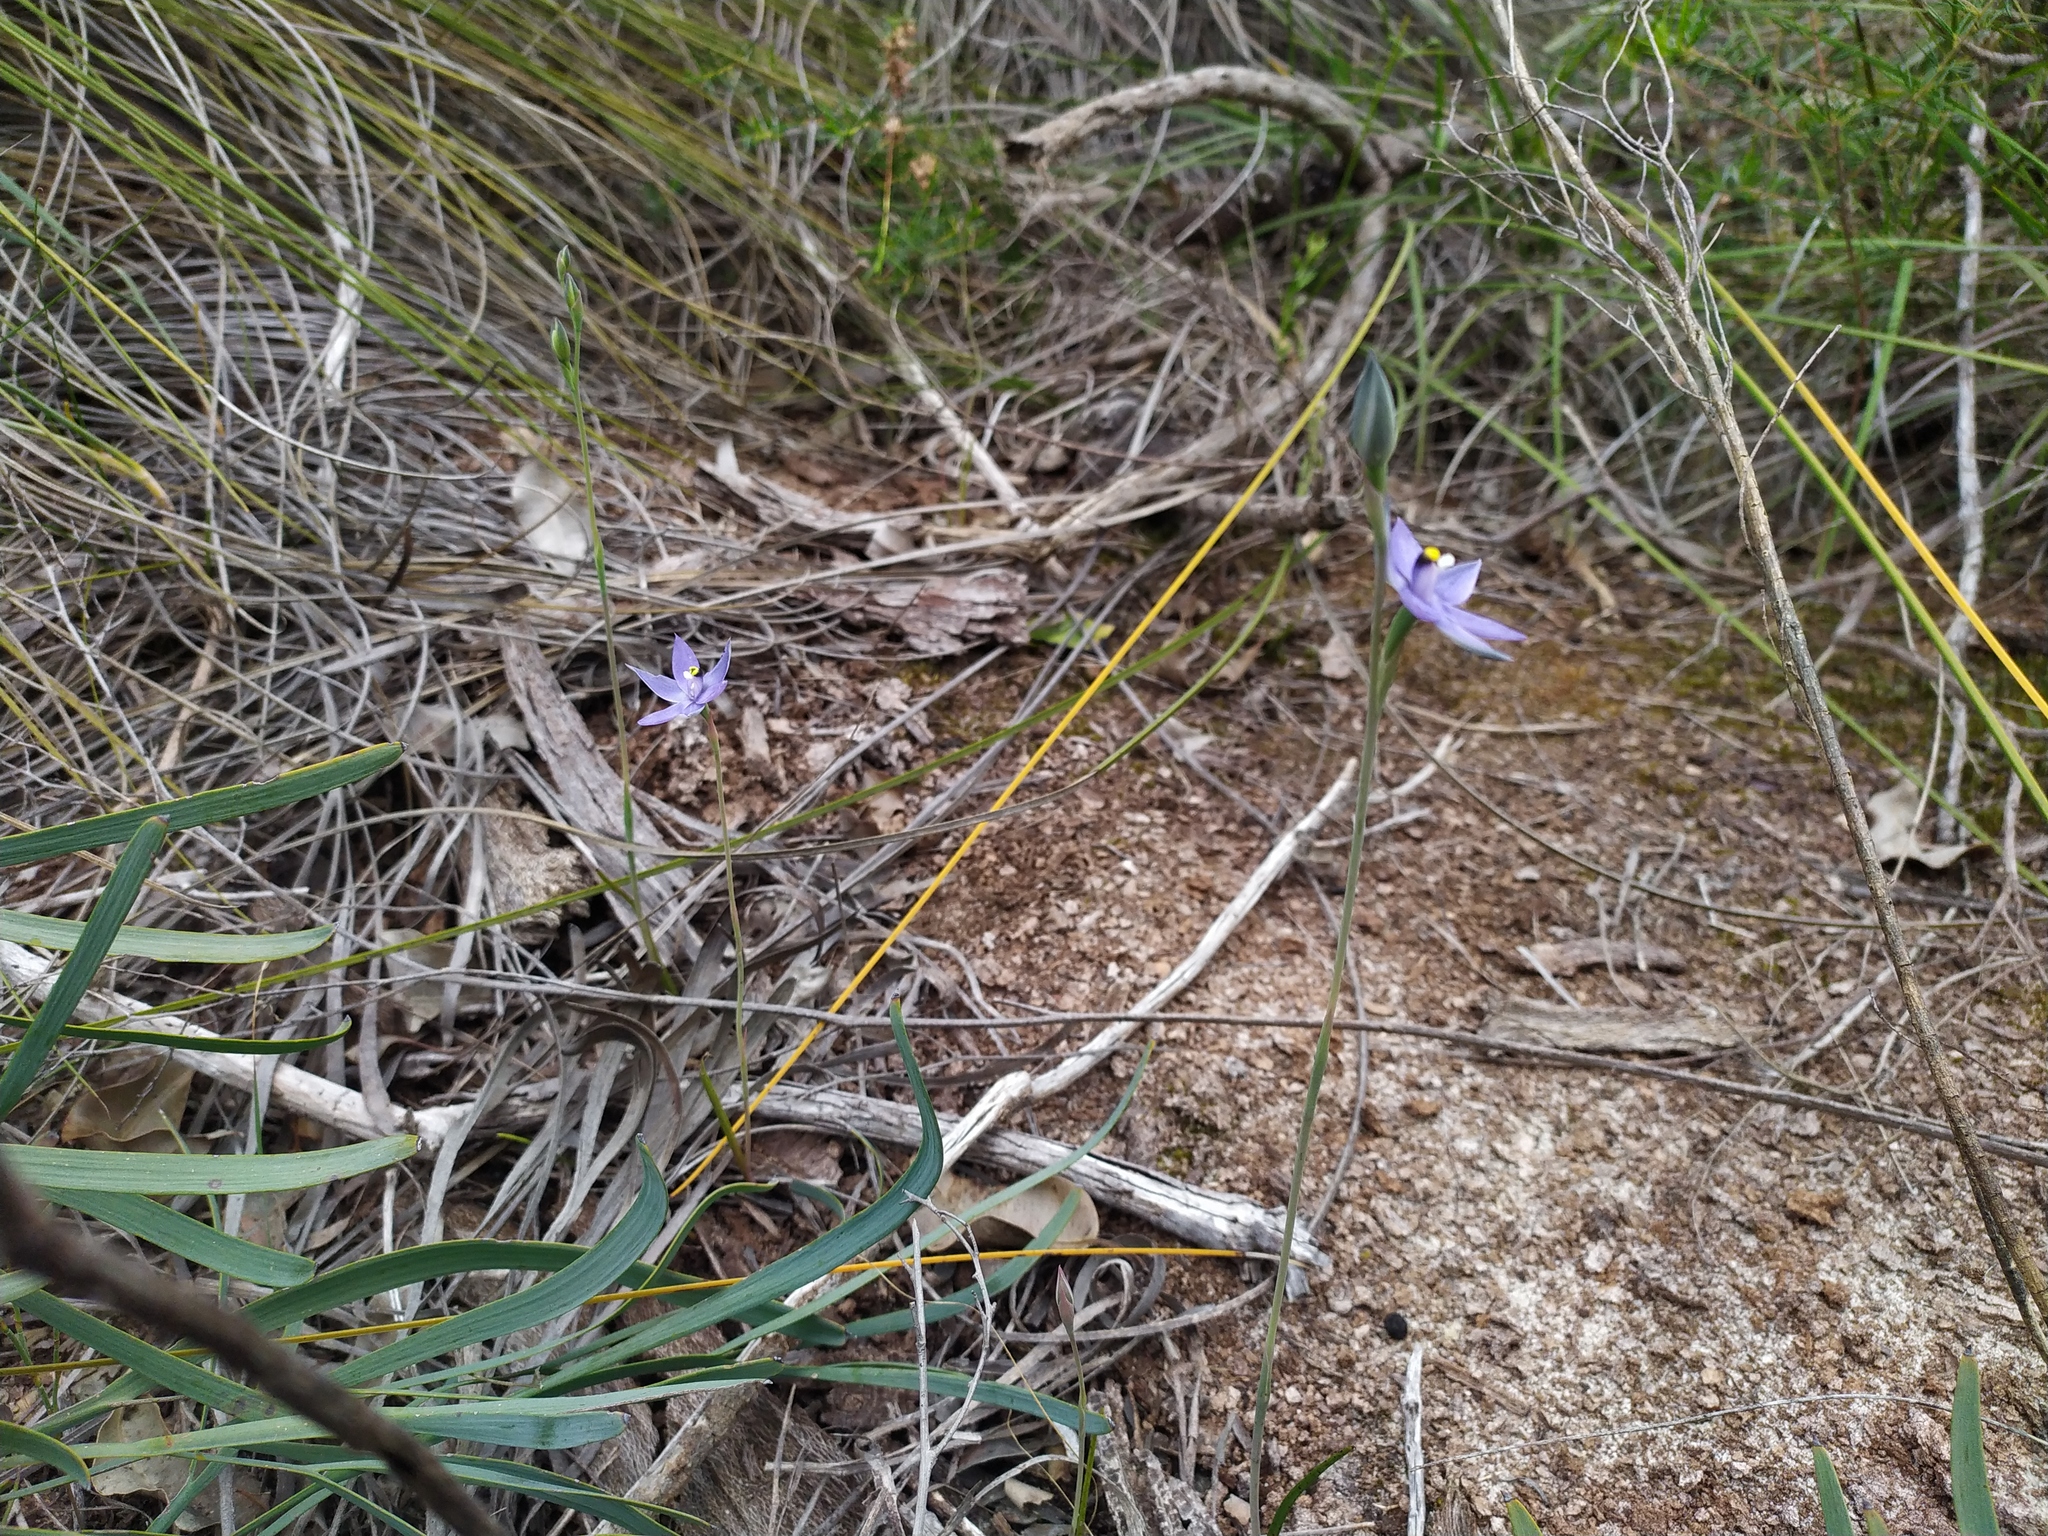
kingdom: Plantae
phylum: Tracheophyta
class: Liliopsida
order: Asparagales
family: Orchidaceae
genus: Thelymitra
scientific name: Thelymitra graminea
